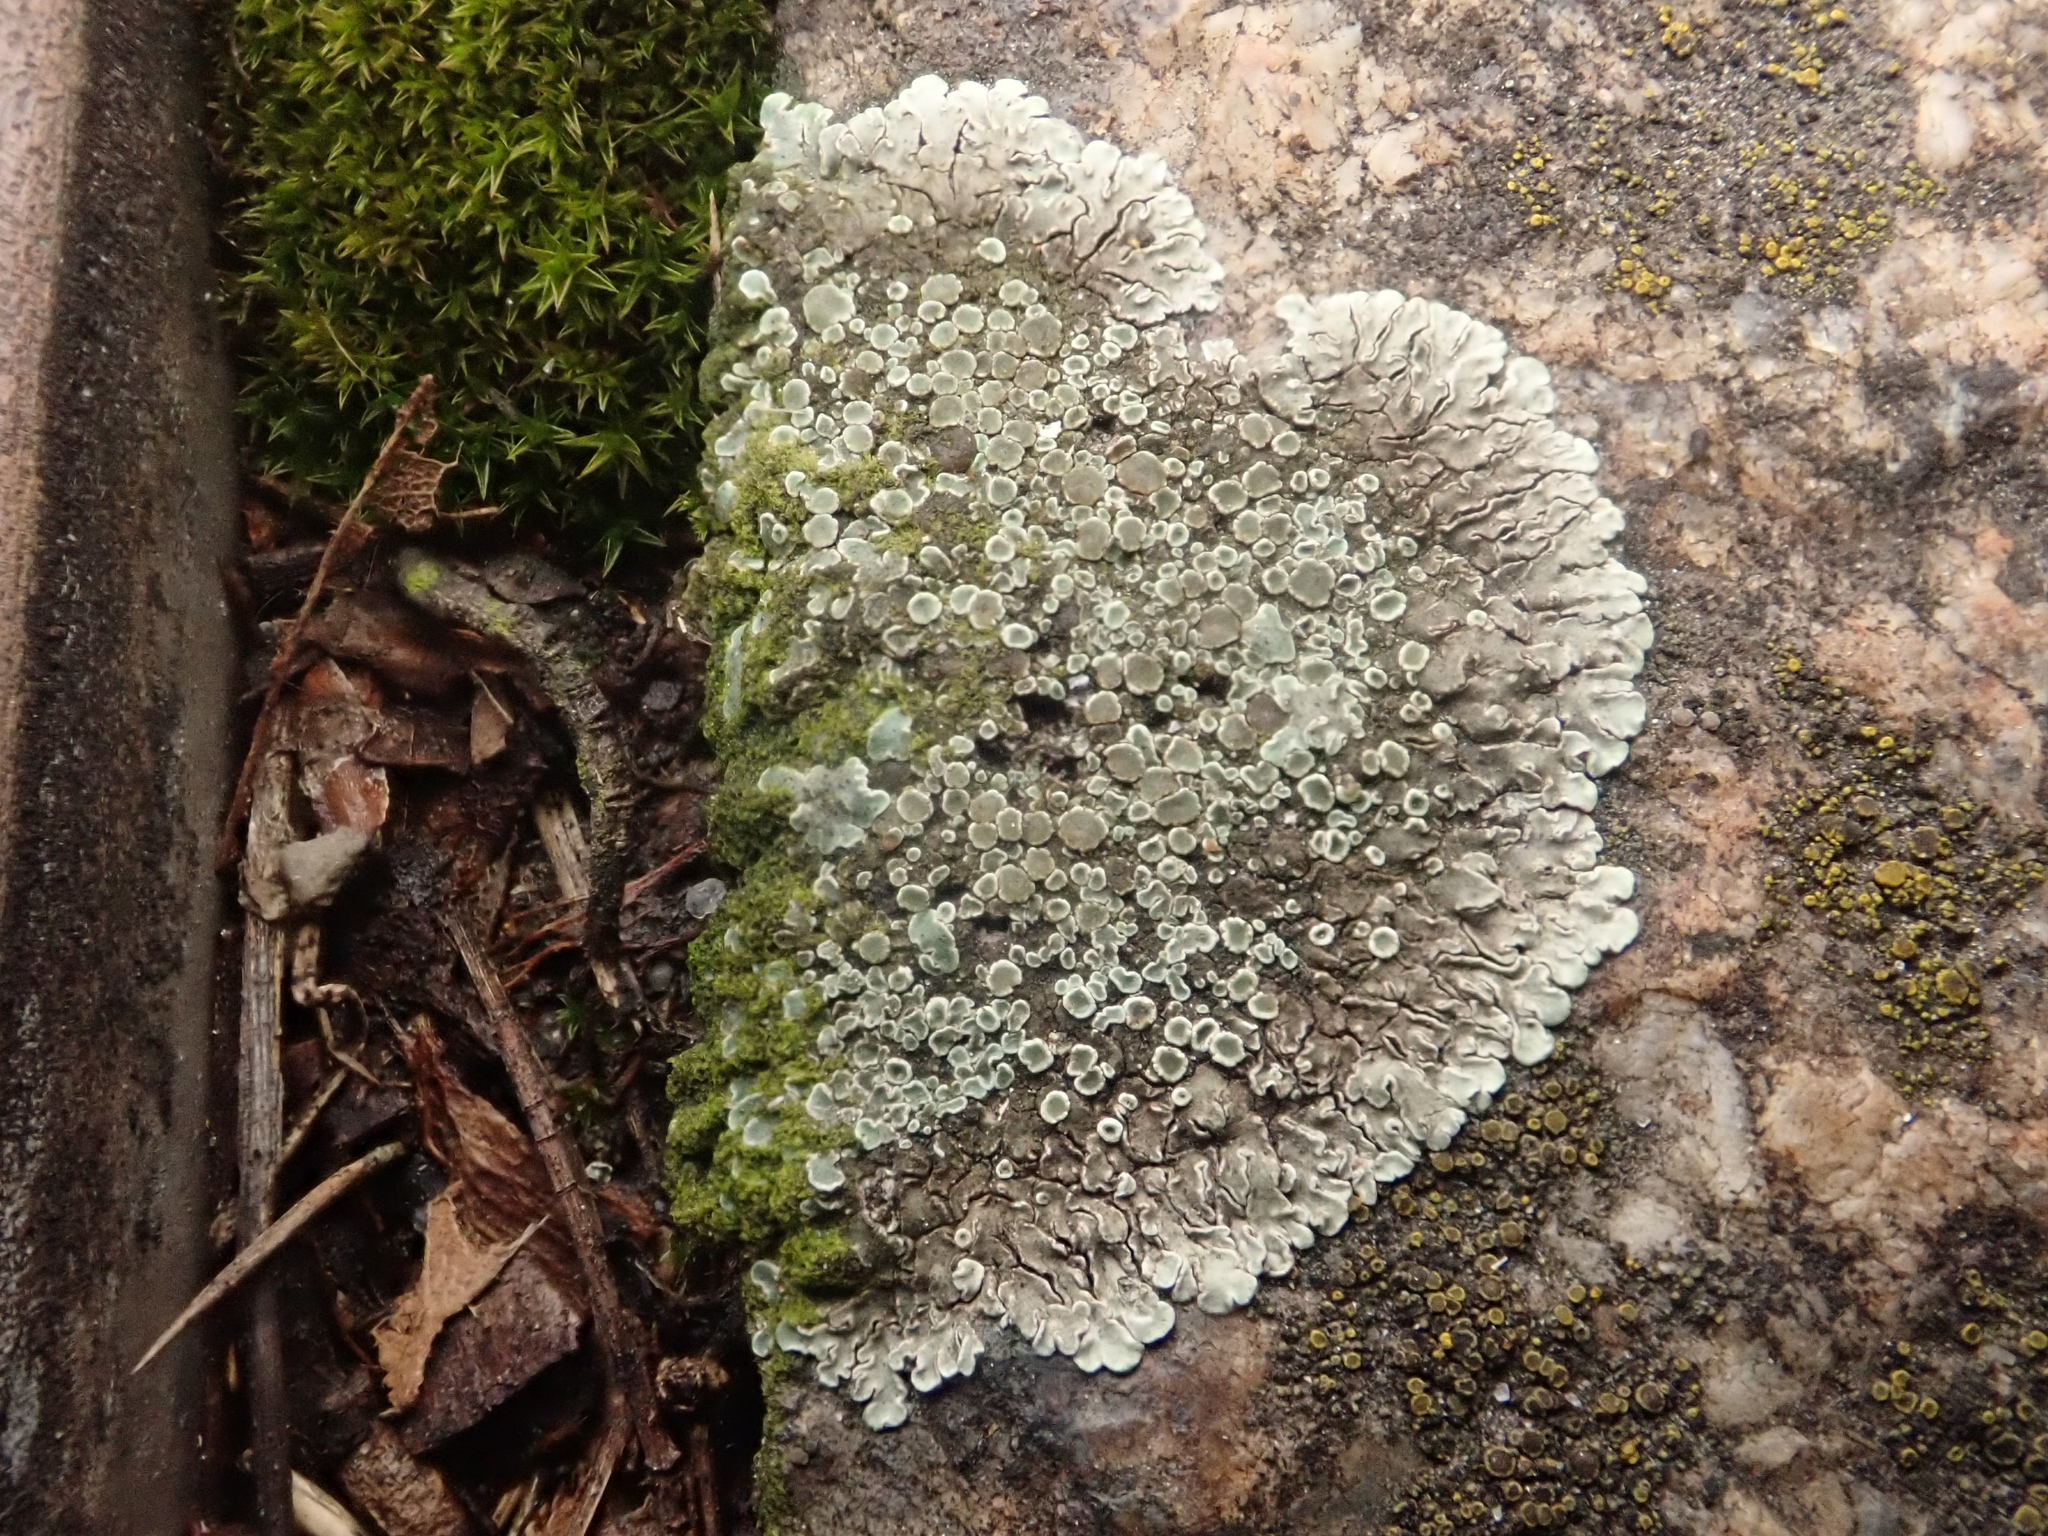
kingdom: Fungi
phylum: Ascomycota
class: Lecanoromycetes
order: Lecanorales
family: Lecanoraceae
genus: Protoparmeliopsis
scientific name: Protoparmeliopsis muralis
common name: Stonewall rim lichen
